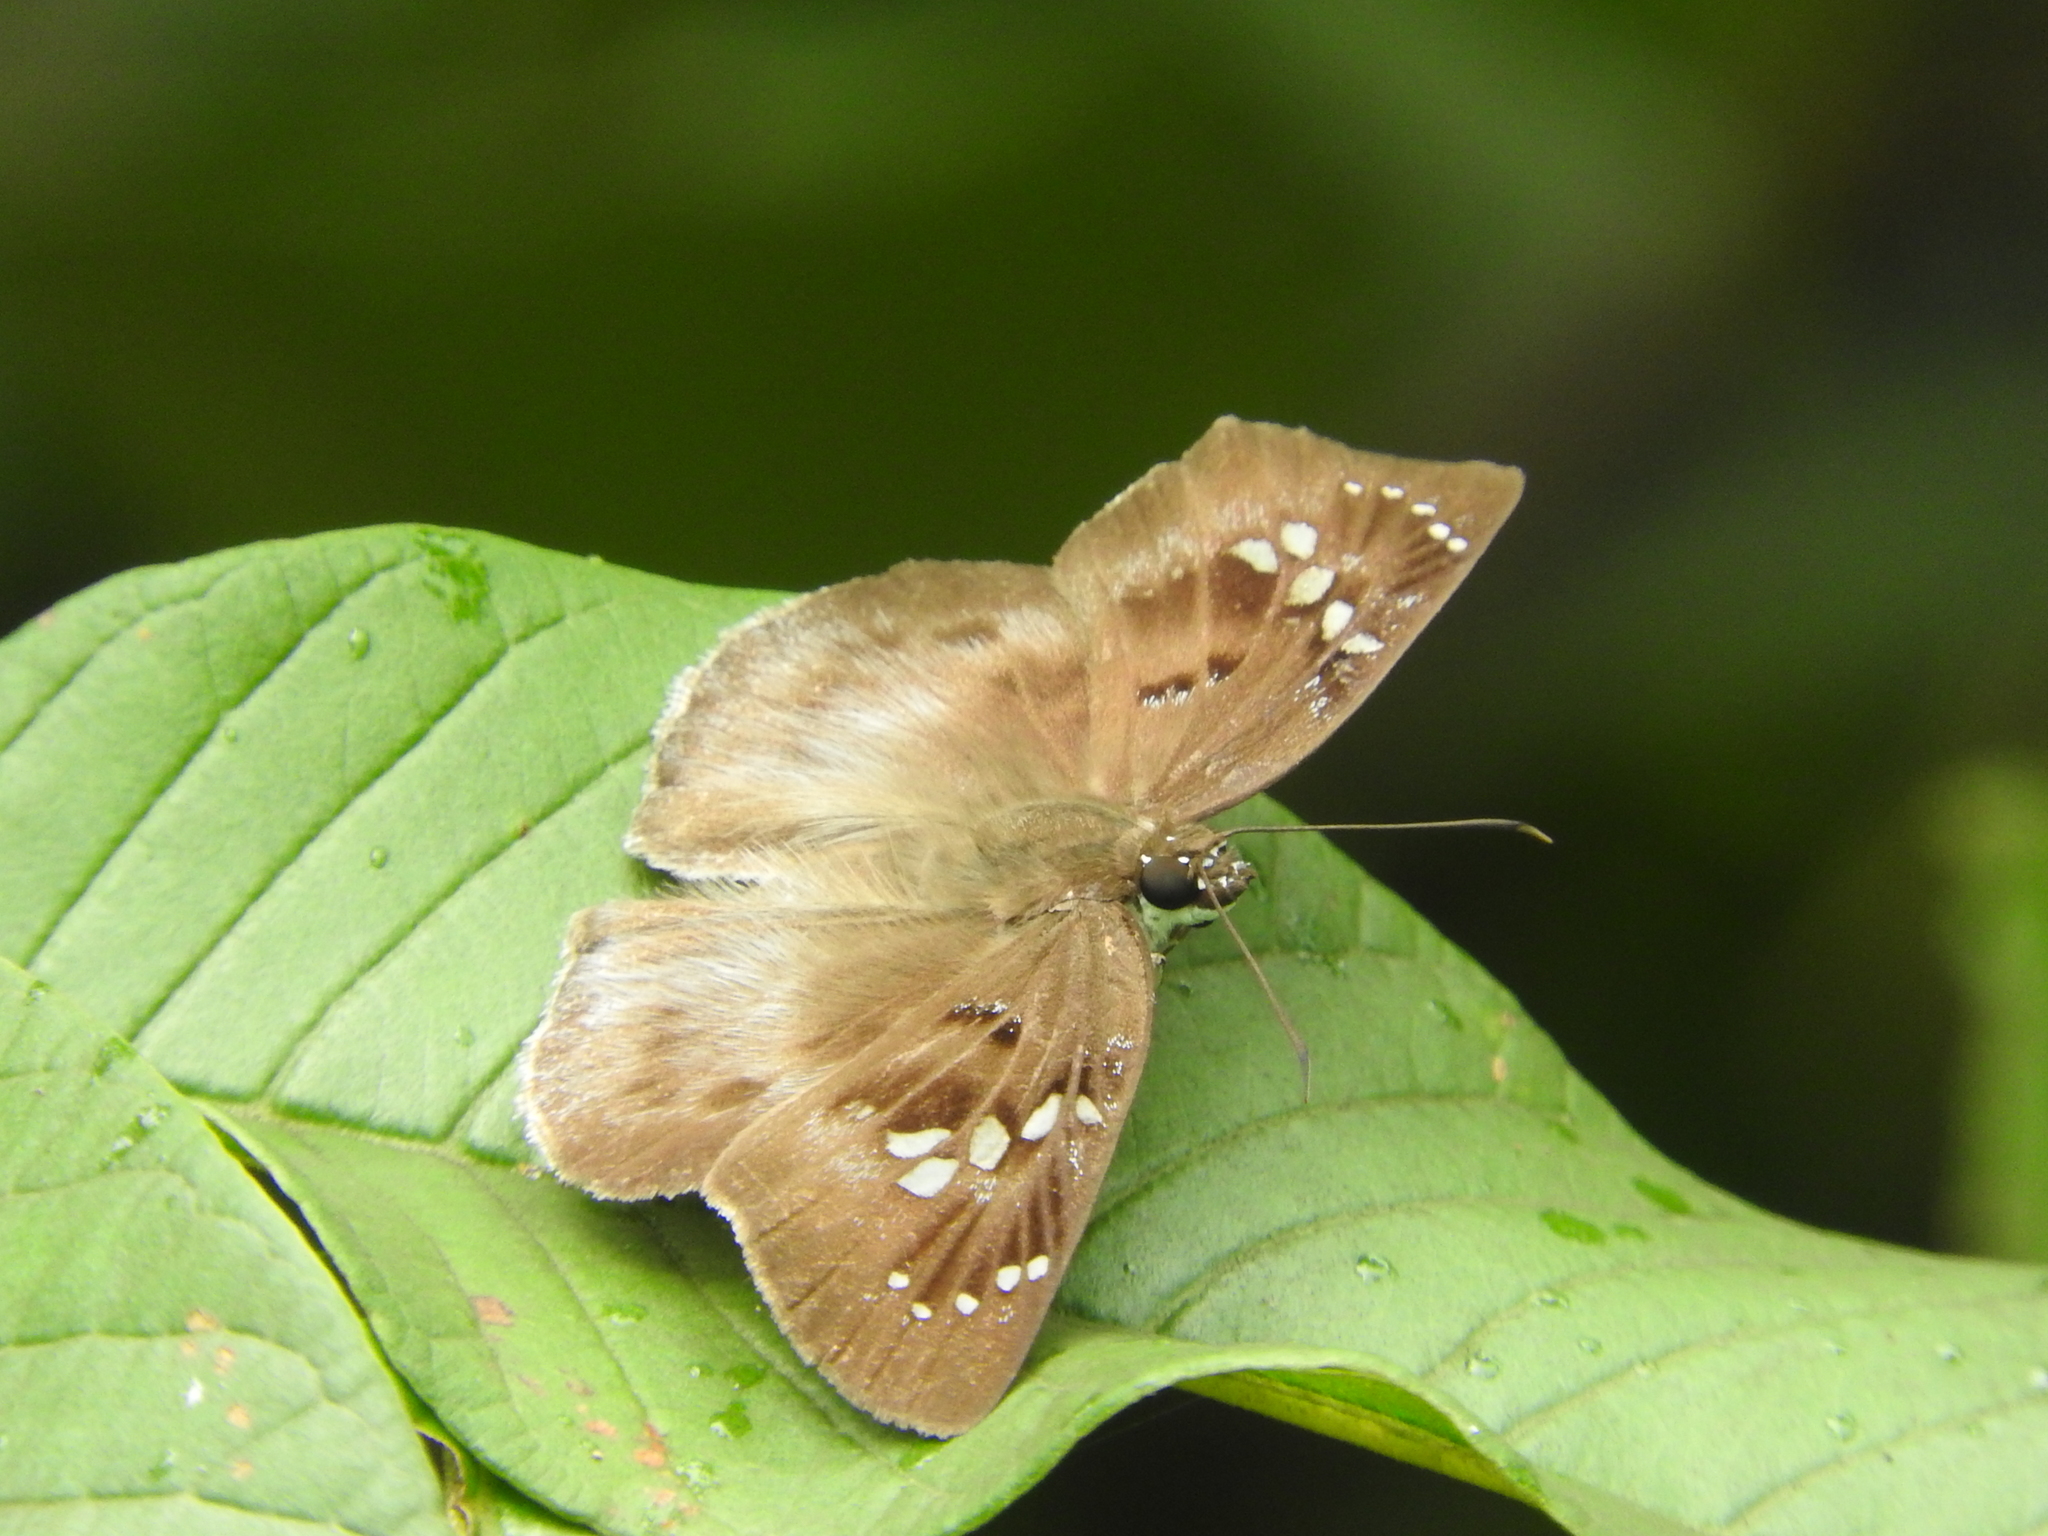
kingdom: Animalia
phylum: Arthropoda
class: Insecta
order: Lepidoptera
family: Hesperiidae
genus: Tagiades
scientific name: Tagiades flesus
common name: Clouded flat
